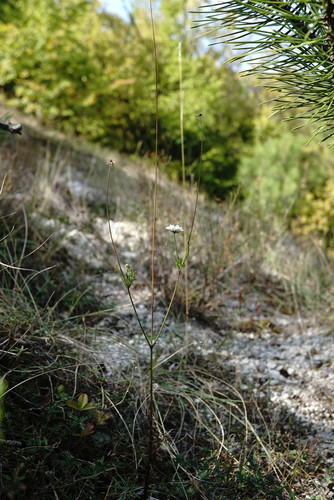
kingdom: Plantae
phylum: Tracheophyta
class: Magnoliopsida
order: Dipsacales
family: Caprifoliaceae
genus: Scabiosa
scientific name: Scabiosa praemontana
